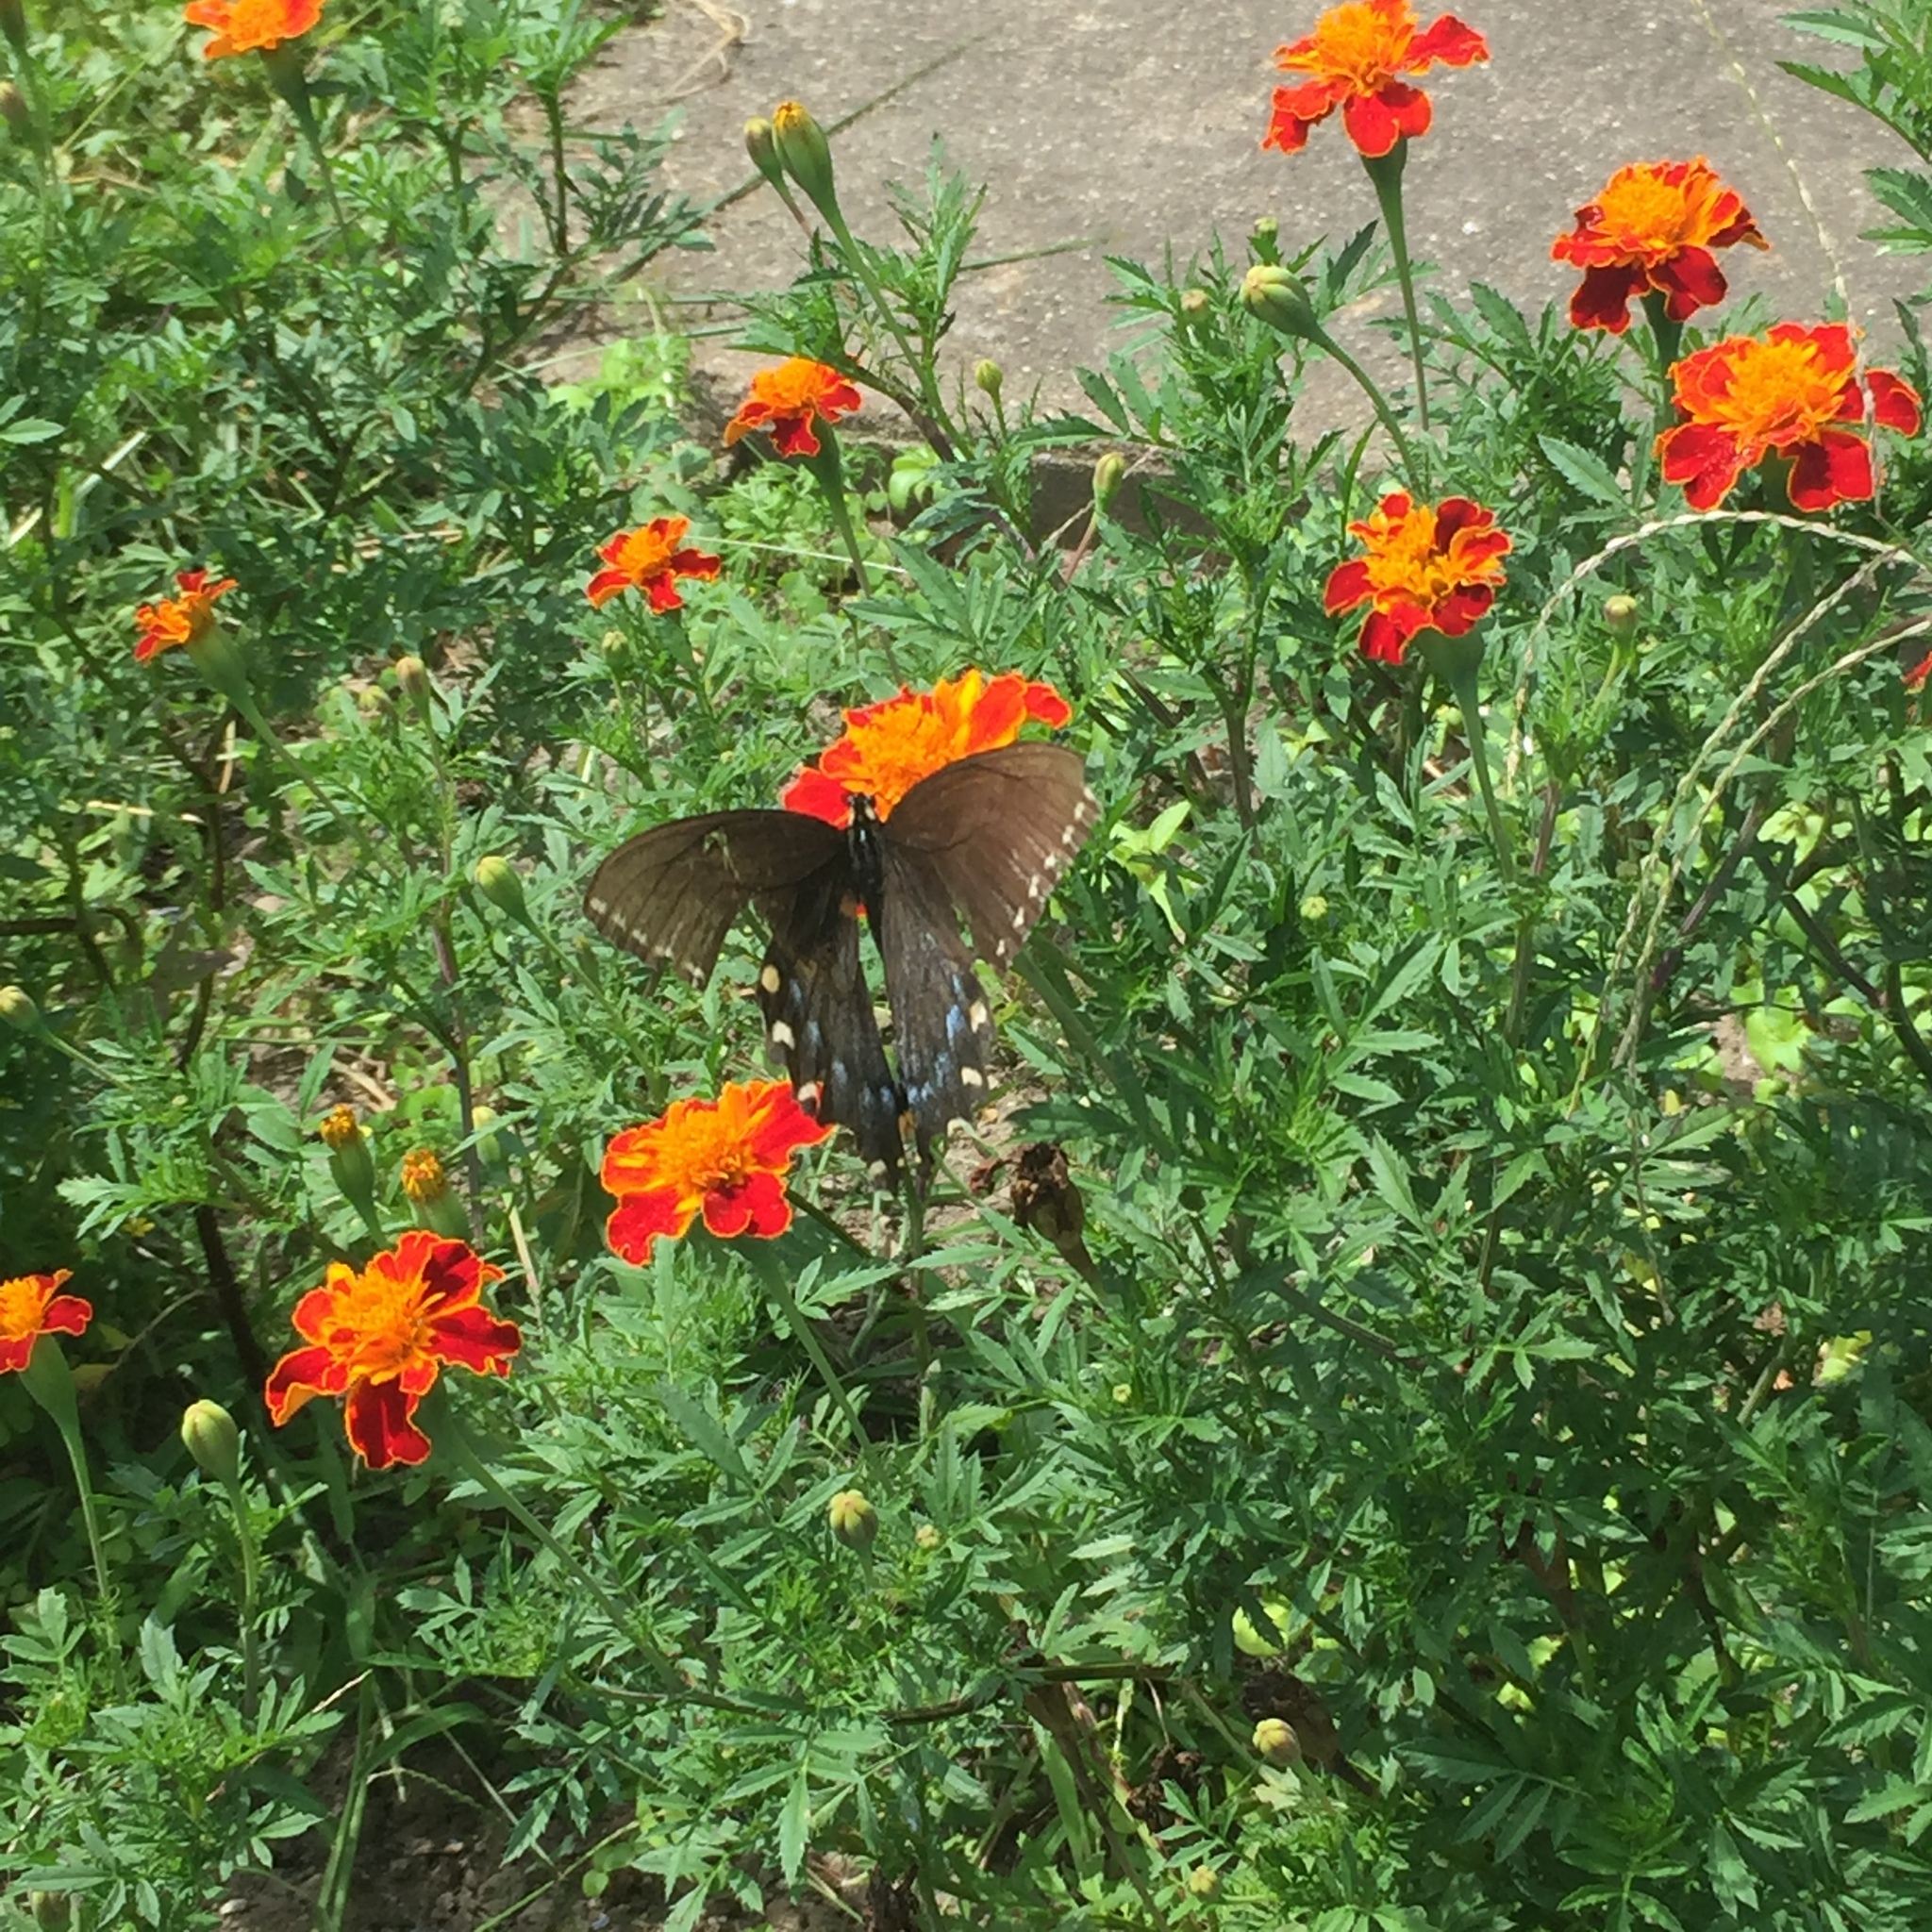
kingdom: Animalia
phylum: Arthropoda
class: Insecta
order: Lepidoptera
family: Papilionidae
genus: Papilio
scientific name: Papilio glaucus
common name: Tiger swallowtail
